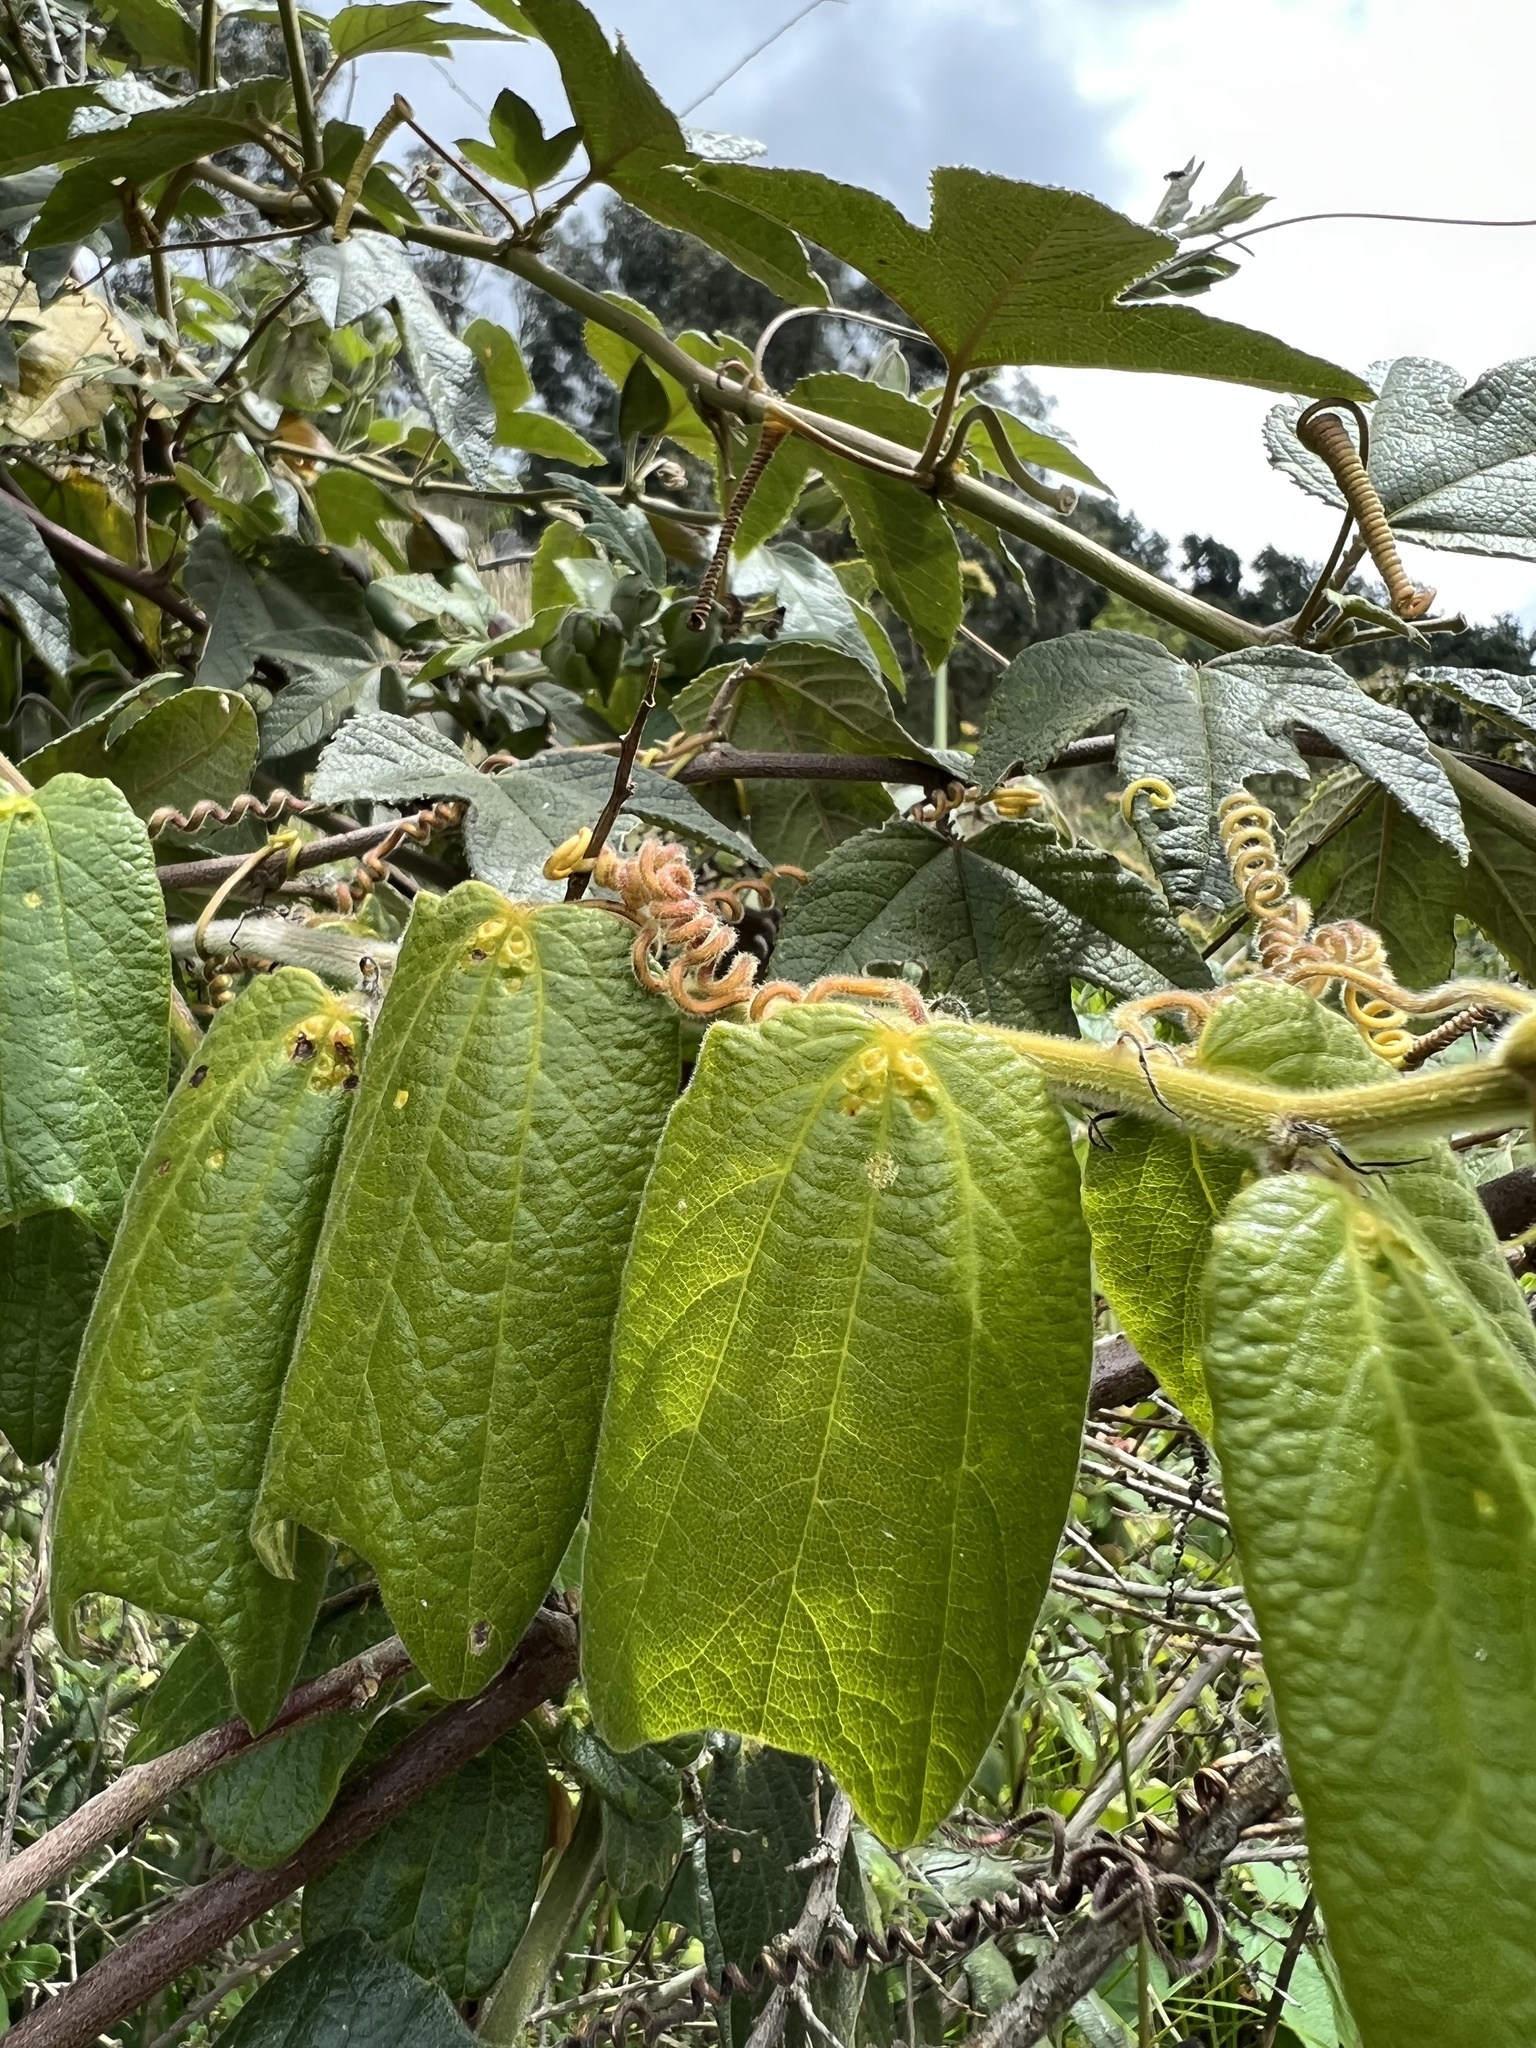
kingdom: Plantae
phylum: Tracheophyta
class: Magnoliopsida
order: Malpighiales
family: Passifloraceae
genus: Passiflora
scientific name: Passiflora bogotensis
